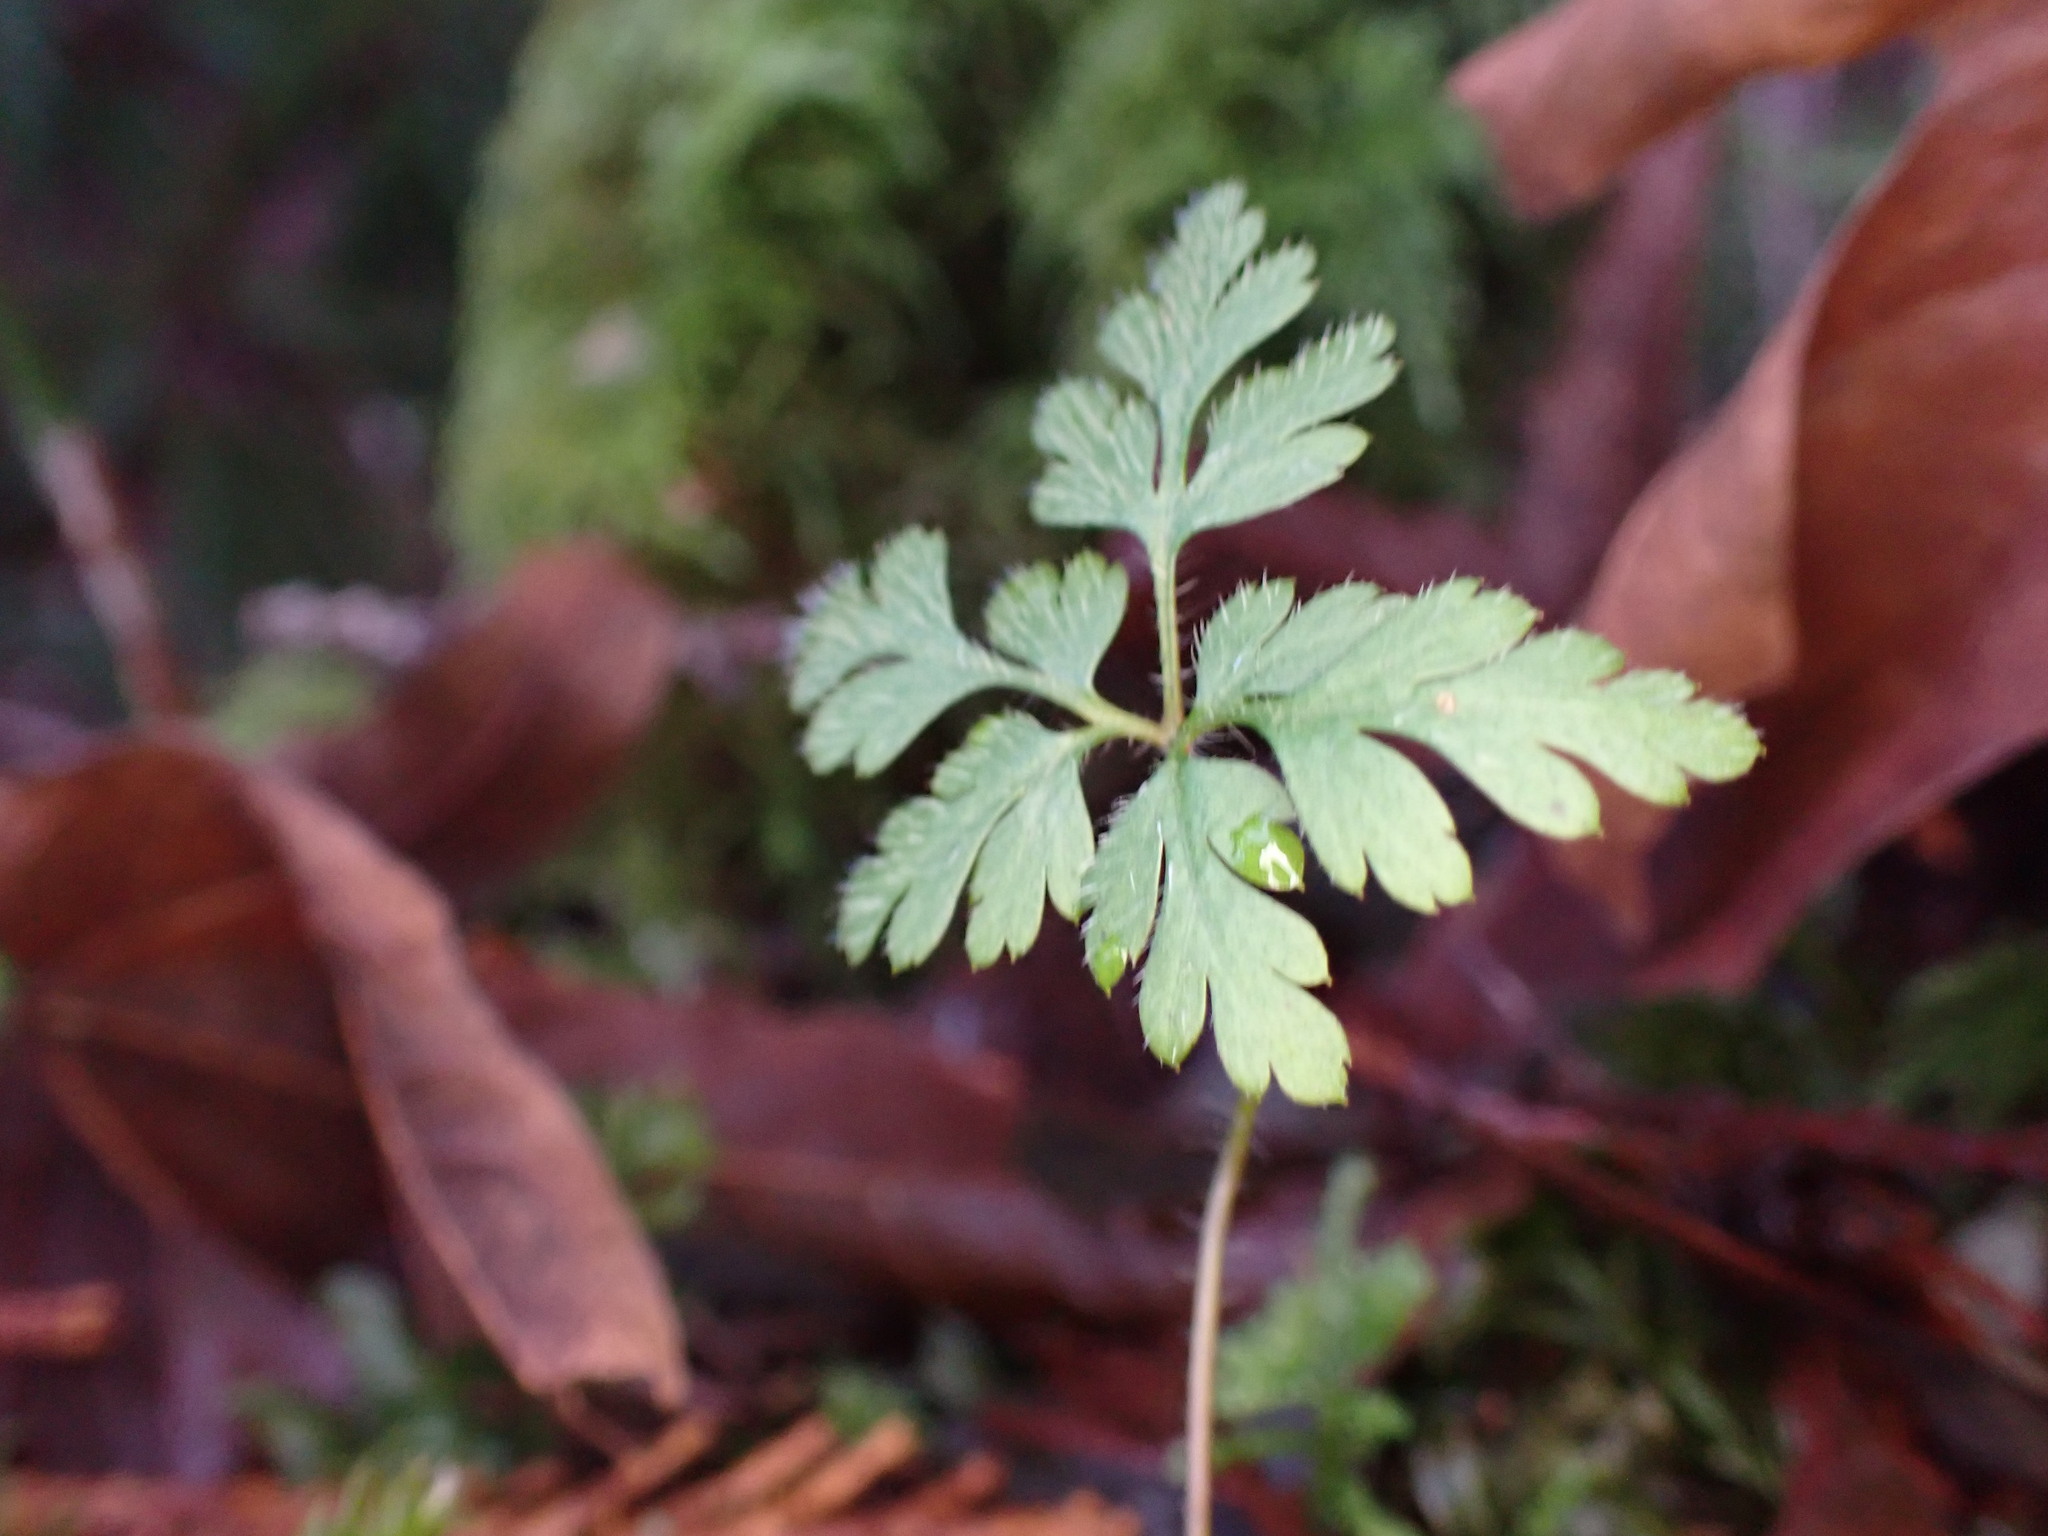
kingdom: Plantae
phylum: Tracheophyta
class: Magnoliopsida
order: Geraniales
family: Geraniaceae
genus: Geranium
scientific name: Geranium robertianum
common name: Herb-robert
